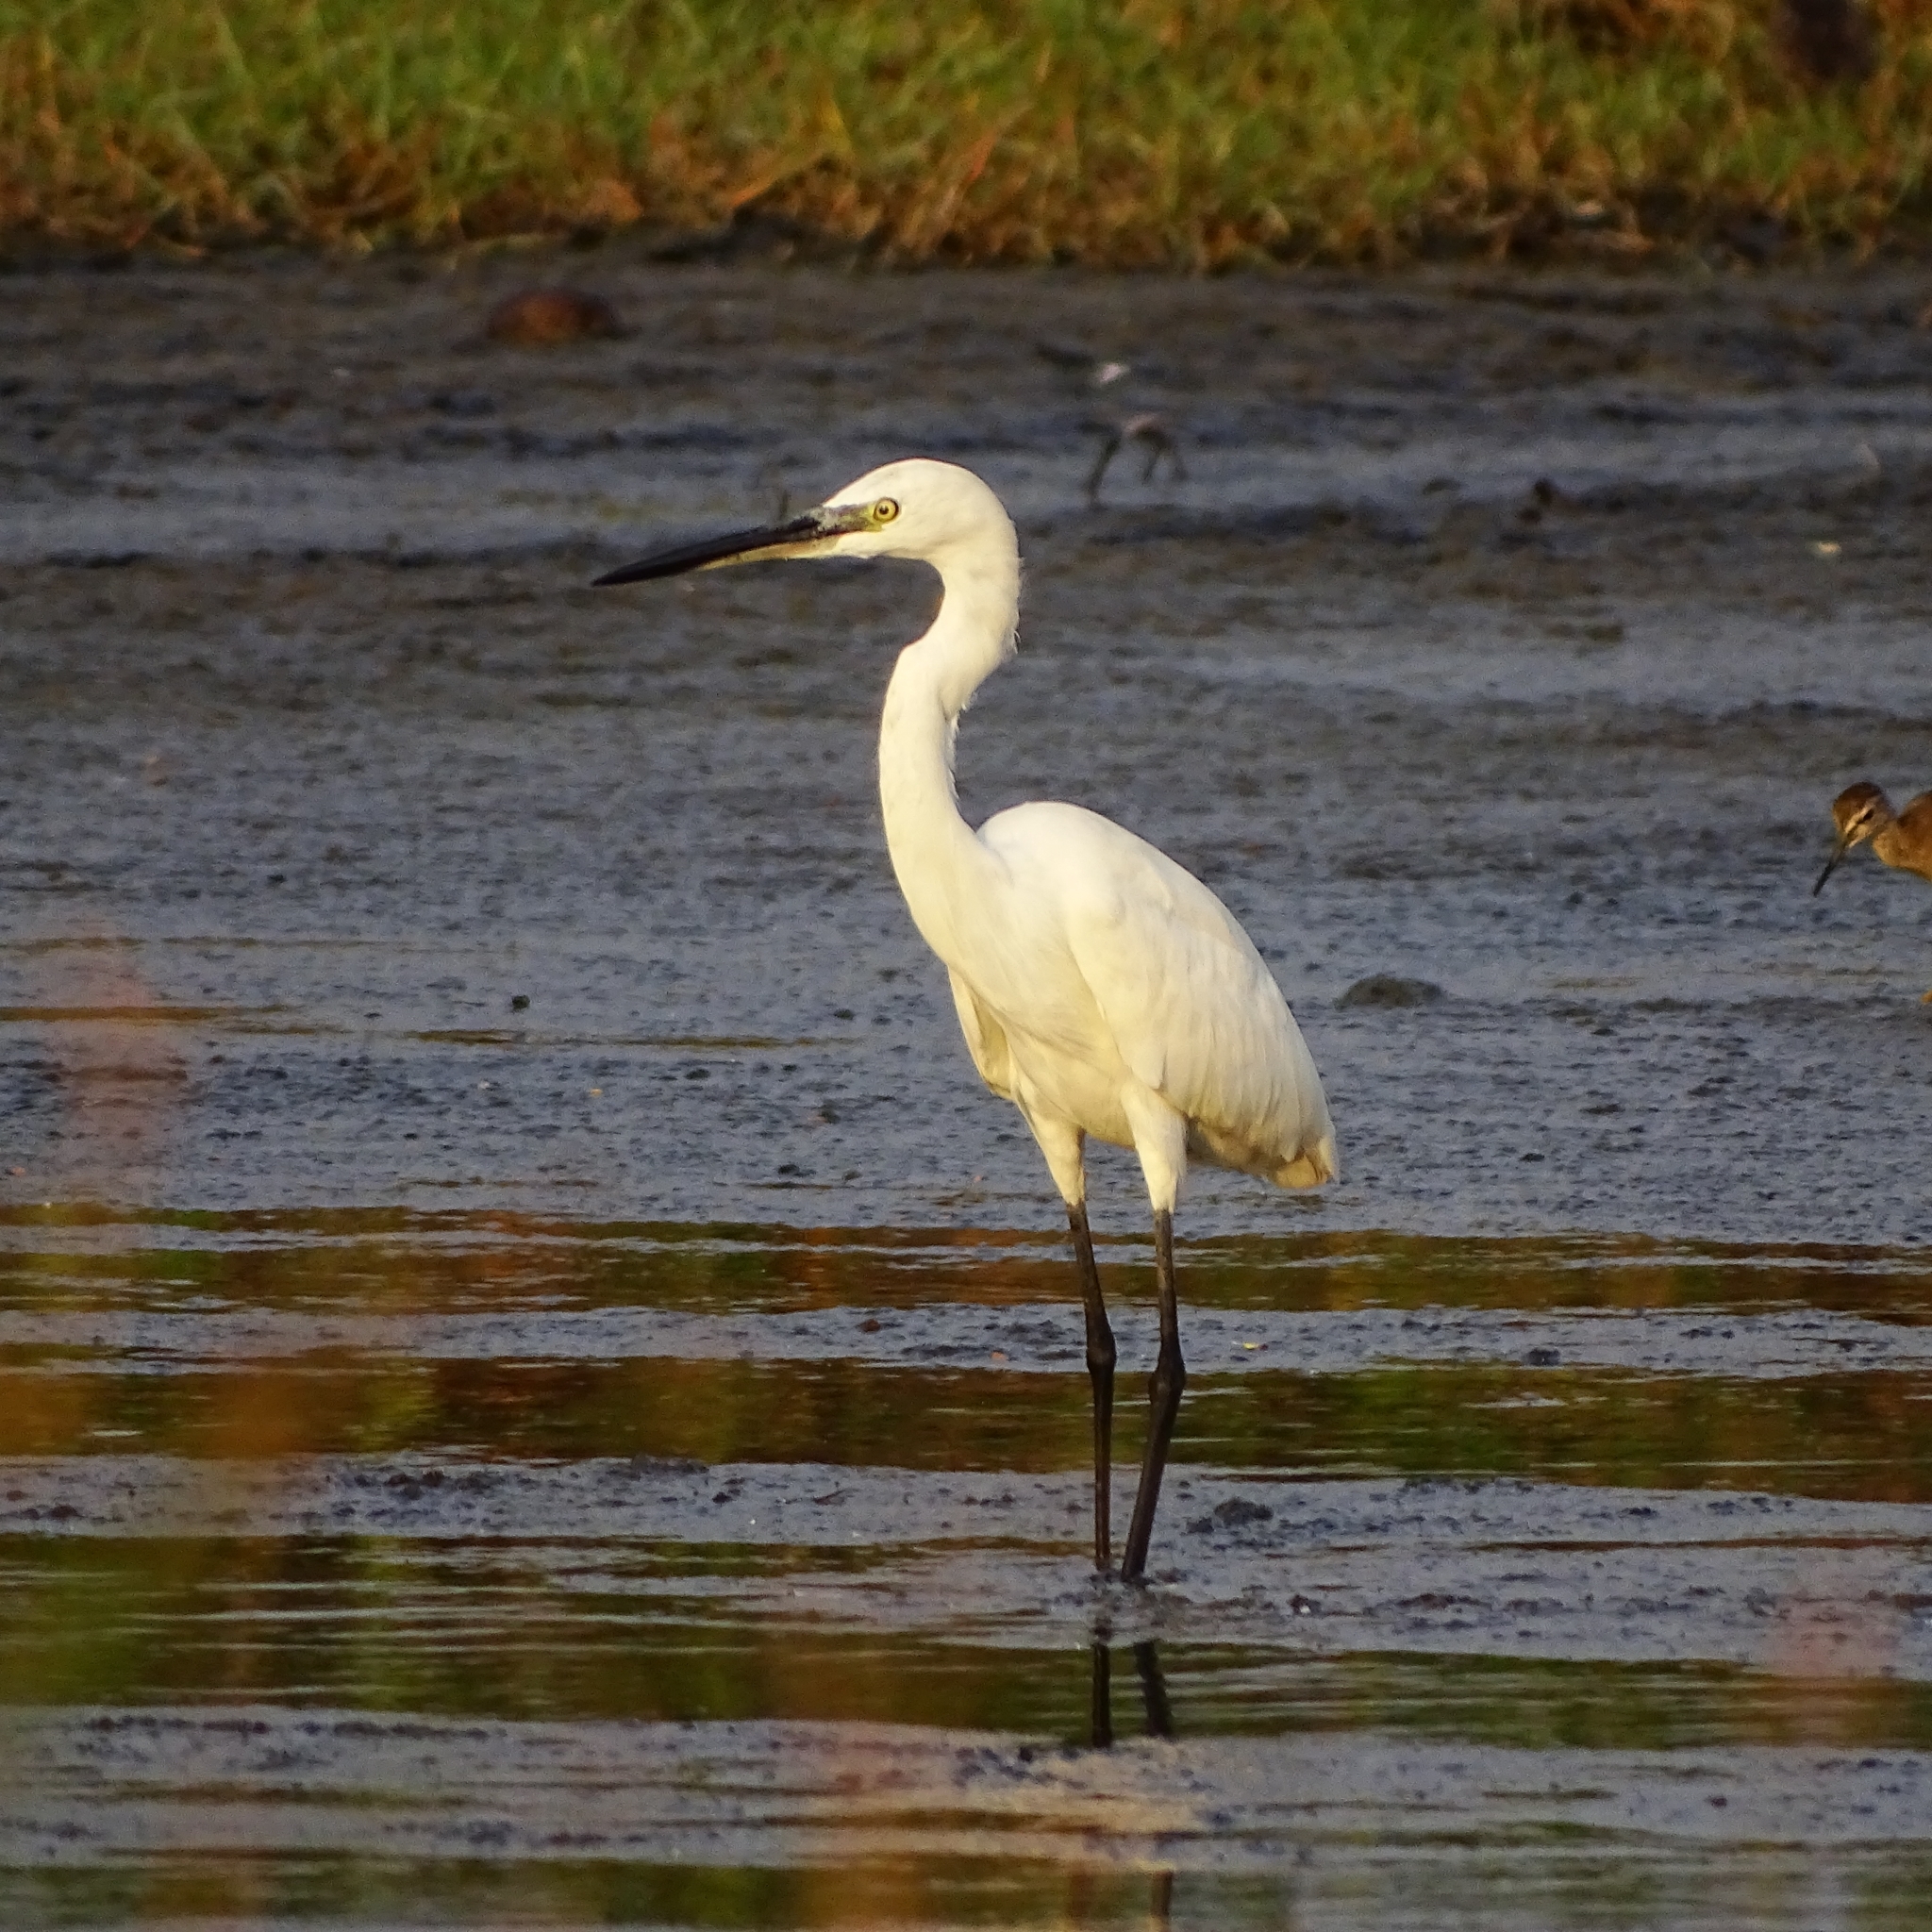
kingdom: Animalia
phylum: Chordata
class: Aves
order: Pelecaniformes
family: Ardeidae
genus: Egretta
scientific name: Egretta garzetta
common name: Little egret
